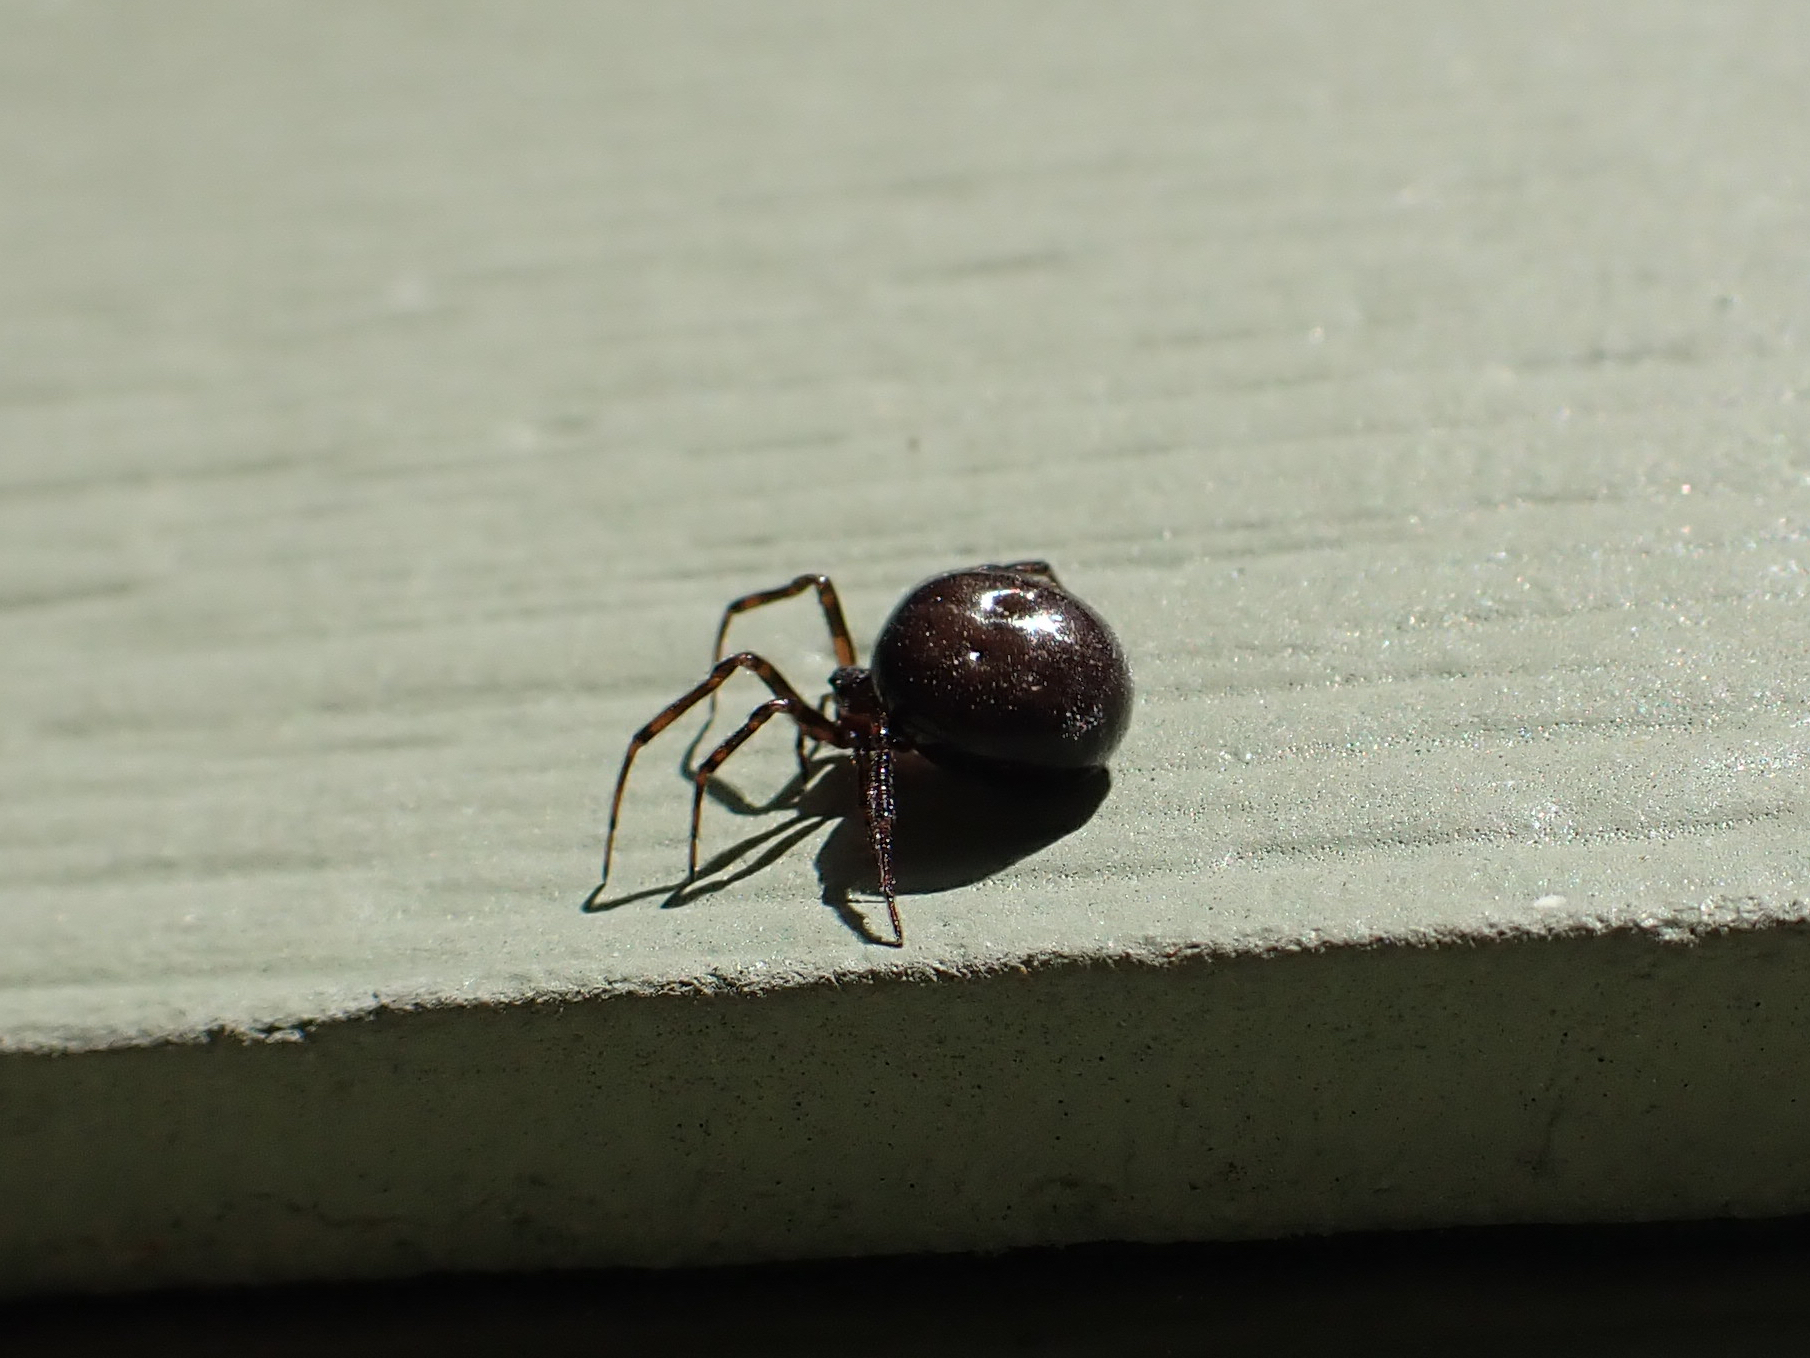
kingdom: Animalia
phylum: Arthropoda
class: Arachnida
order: Araneae
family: Theridiidae
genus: Steatoda
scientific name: Steatoda borealis
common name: Boreal combfoot
